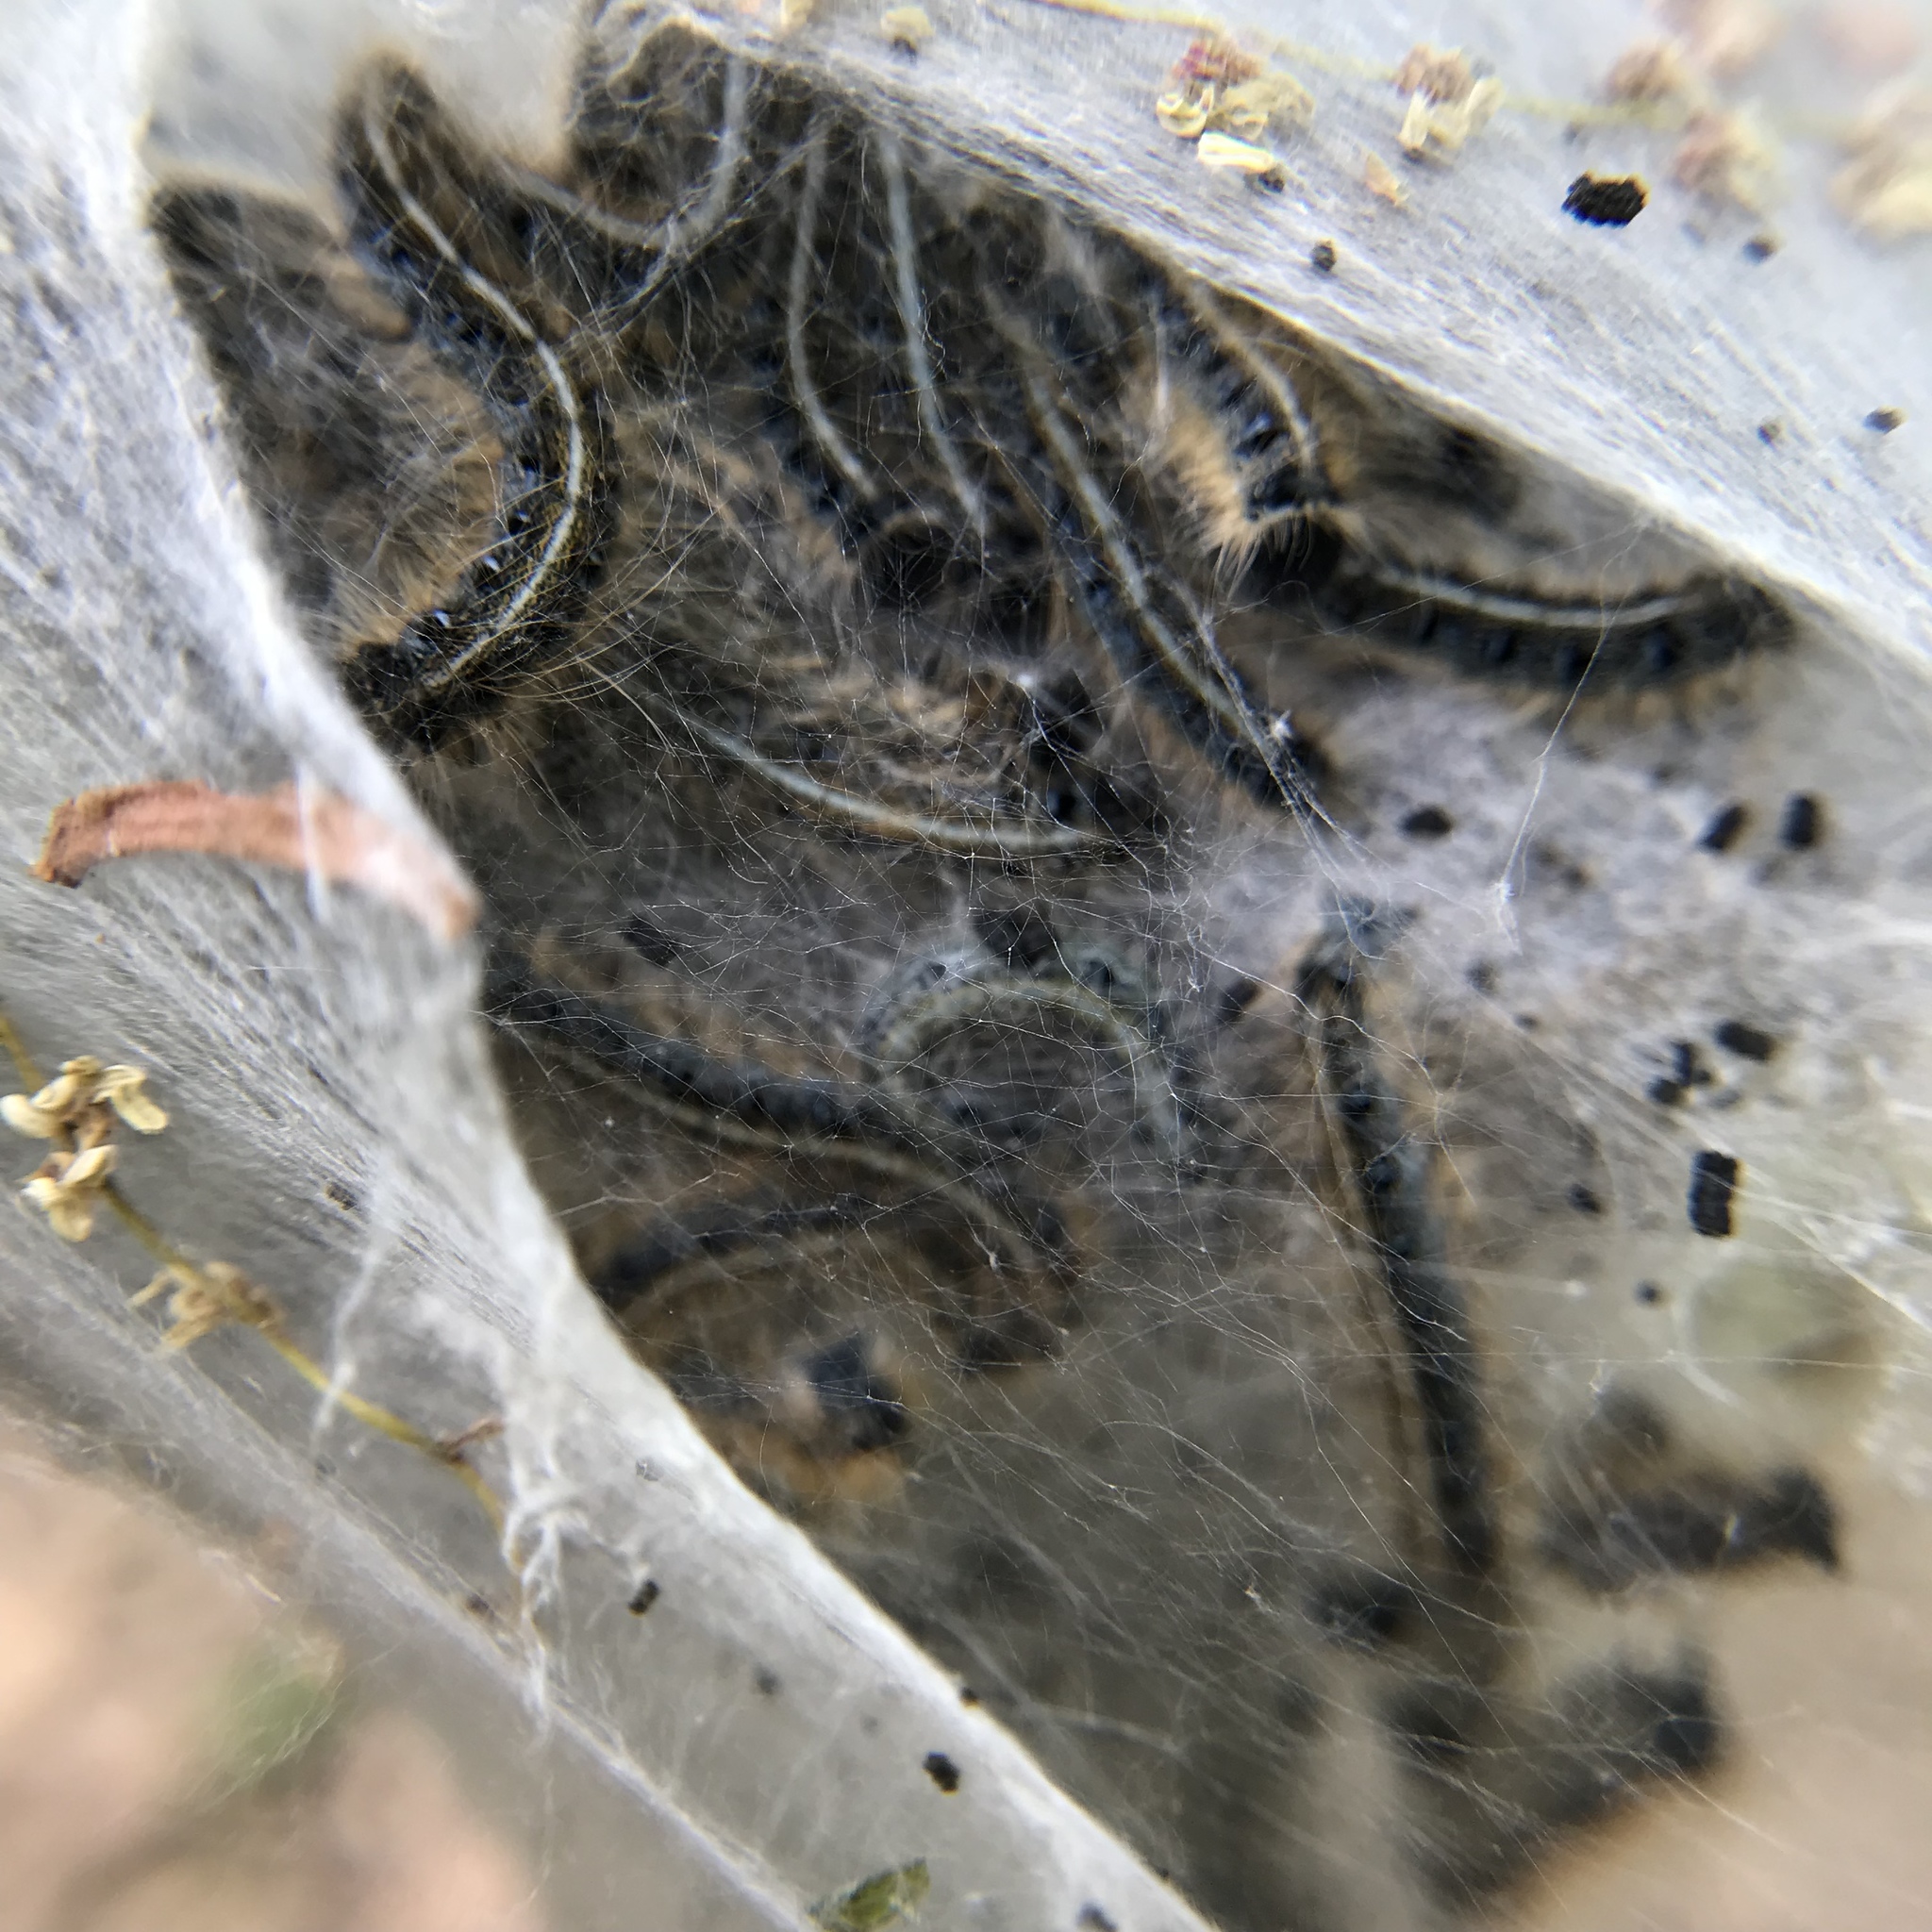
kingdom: Animalia
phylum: Arthropoda
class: Insecta
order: Lepidoptera
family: Lasiocampidae
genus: Malacosoma
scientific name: Malacosoma americana
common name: Eastern tent caterpillar moth
